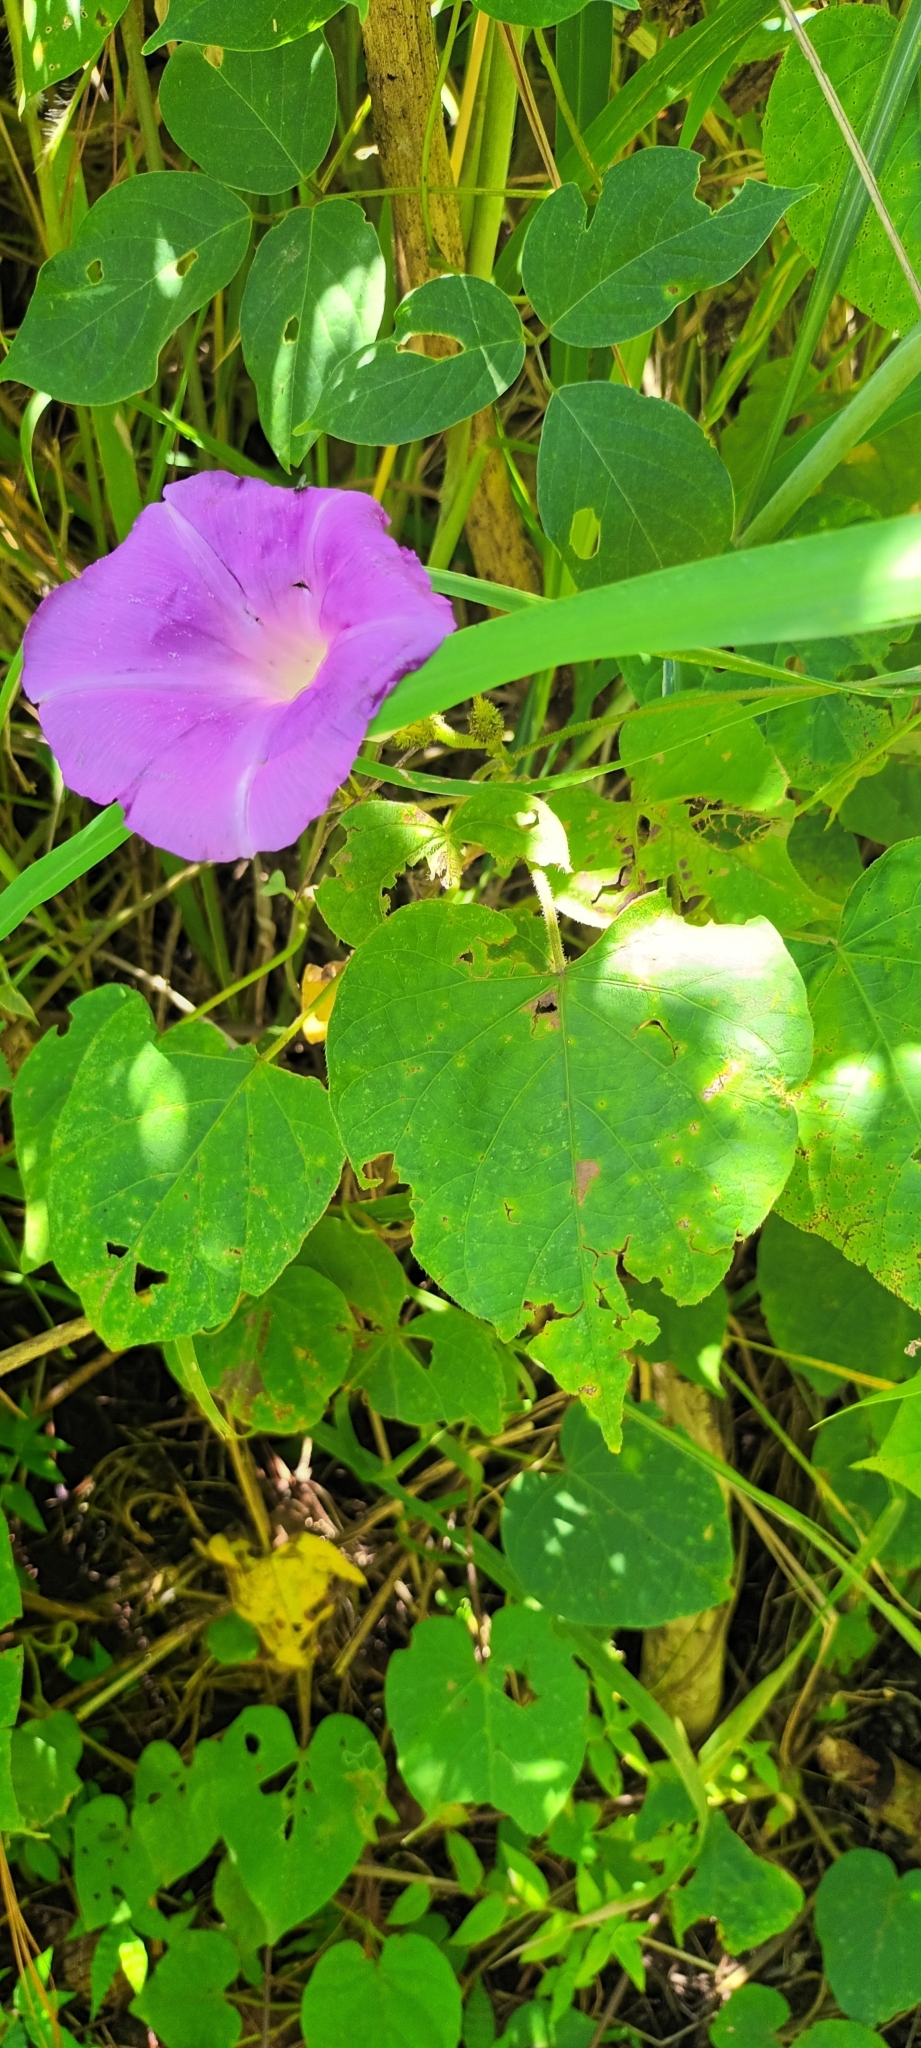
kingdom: Plantae
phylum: Tracheophyta
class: Magnoliopsida
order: Solanales
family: Convolvulaceae
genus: Ipomoea
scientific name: Ipomoea silvicola
